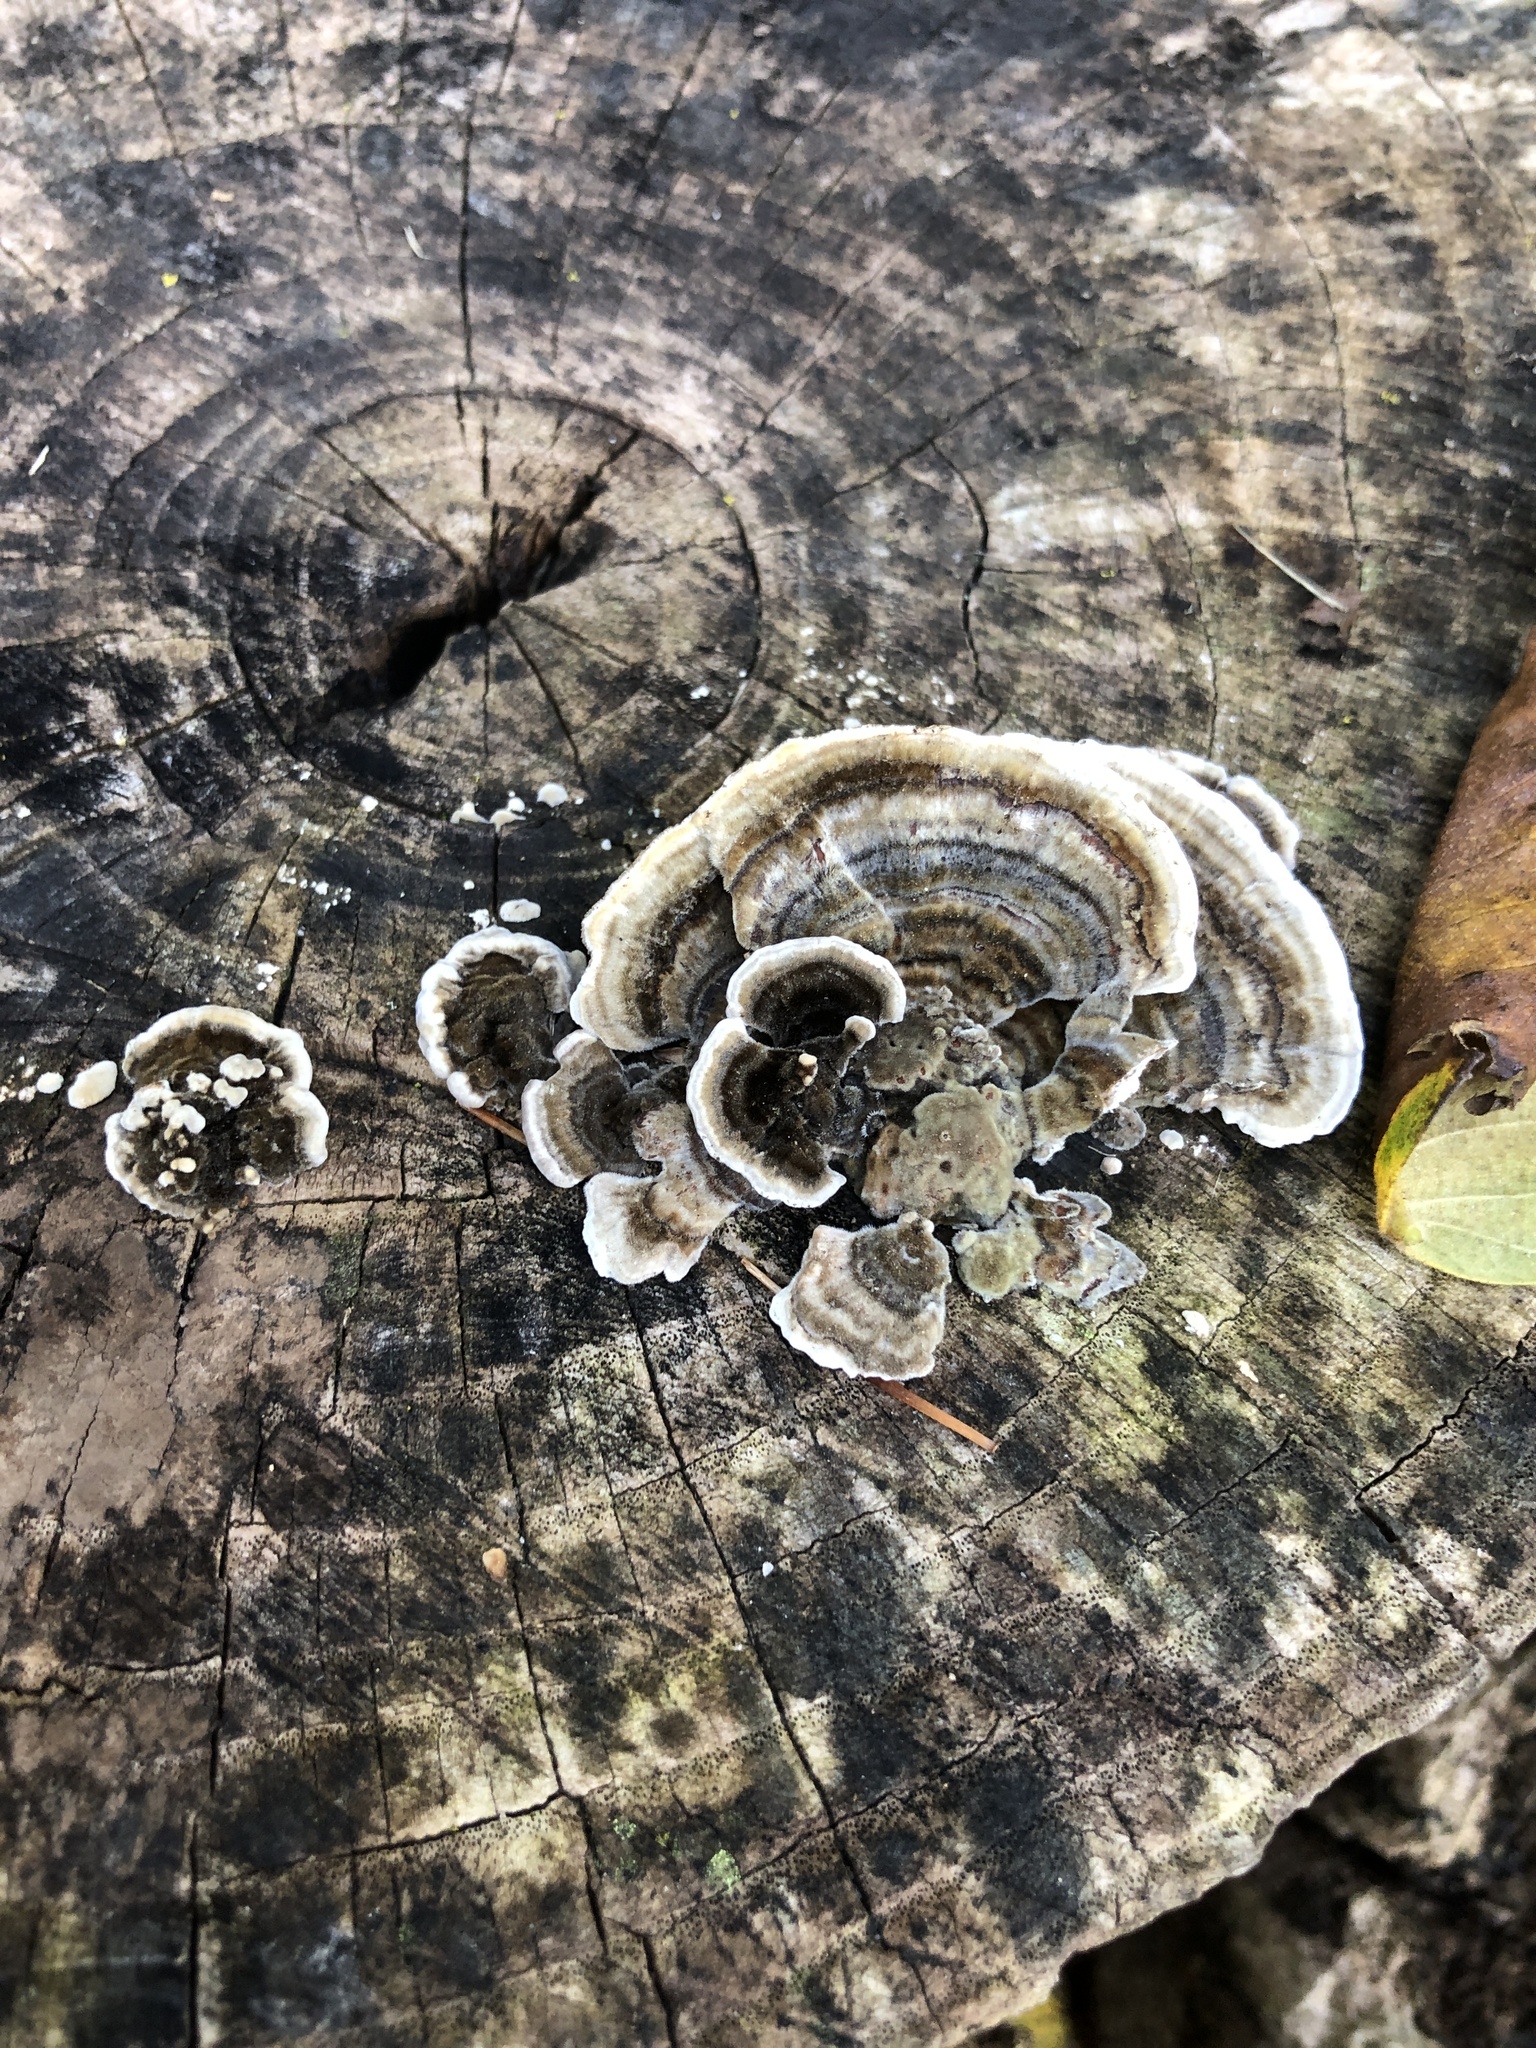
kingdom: Fungi
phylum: Basidiomycota
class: Agaricomycetes
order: Polyporales
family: Polyporaceae
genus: Trametes
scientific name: Trametes versicolor
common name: Turkeytail
